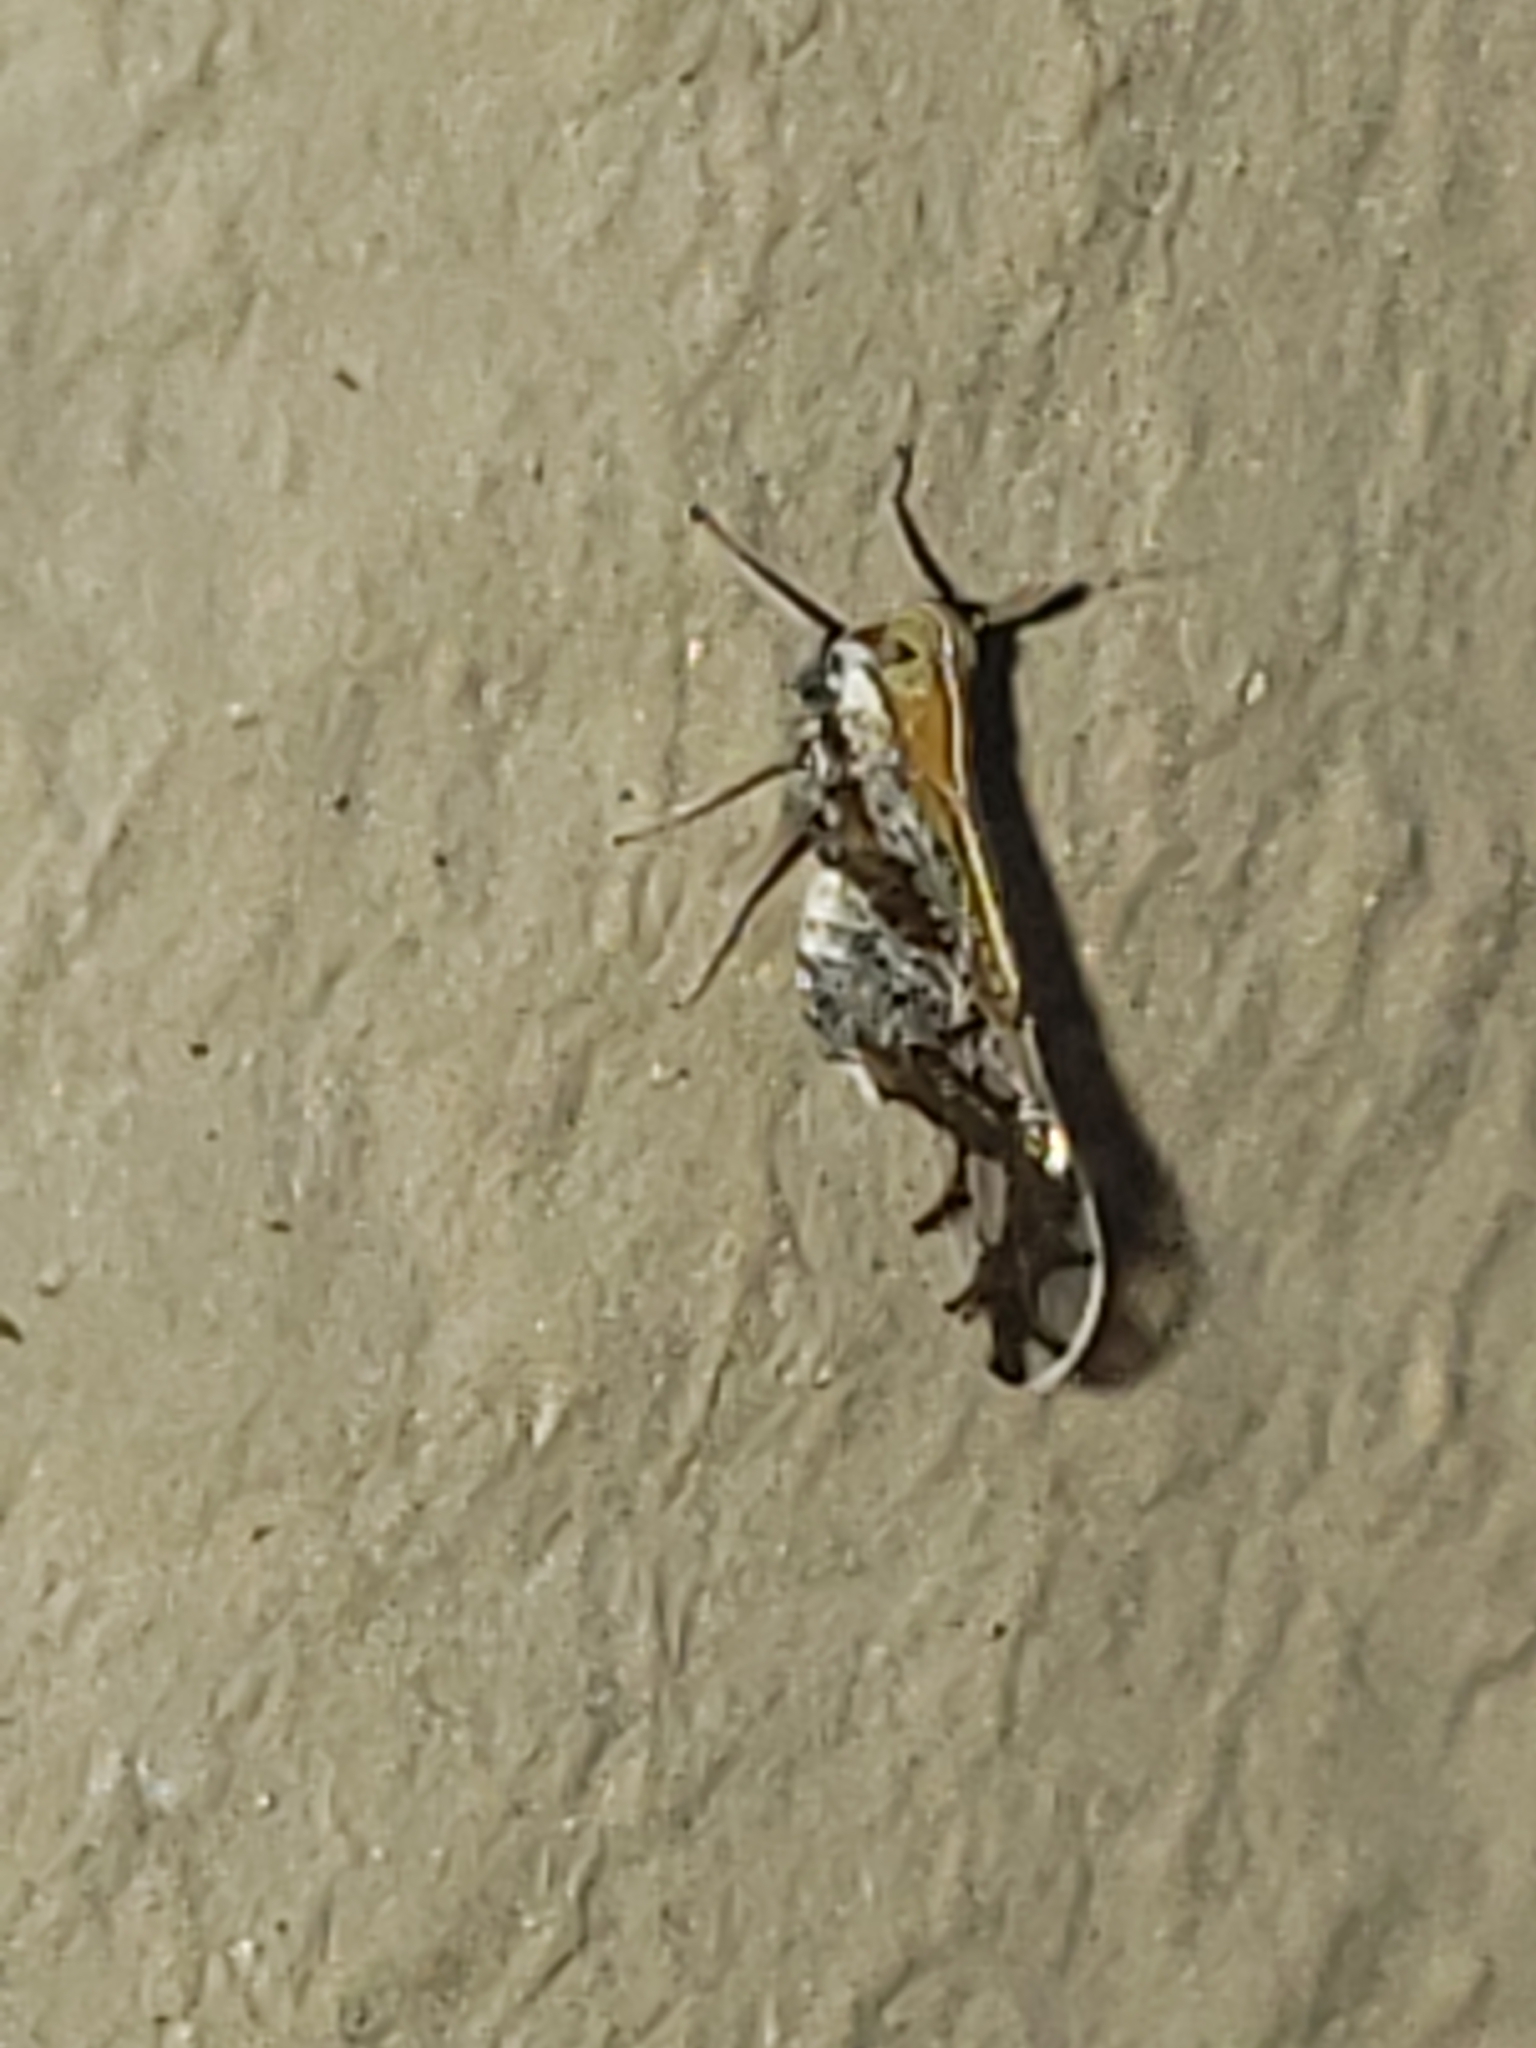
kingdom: Animalia
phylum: Arthropoda
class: Insecta
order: Hemiptera
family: Delphacidae
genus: Liburniella
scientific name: Liburniella ornata
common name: Ornate planthopper
